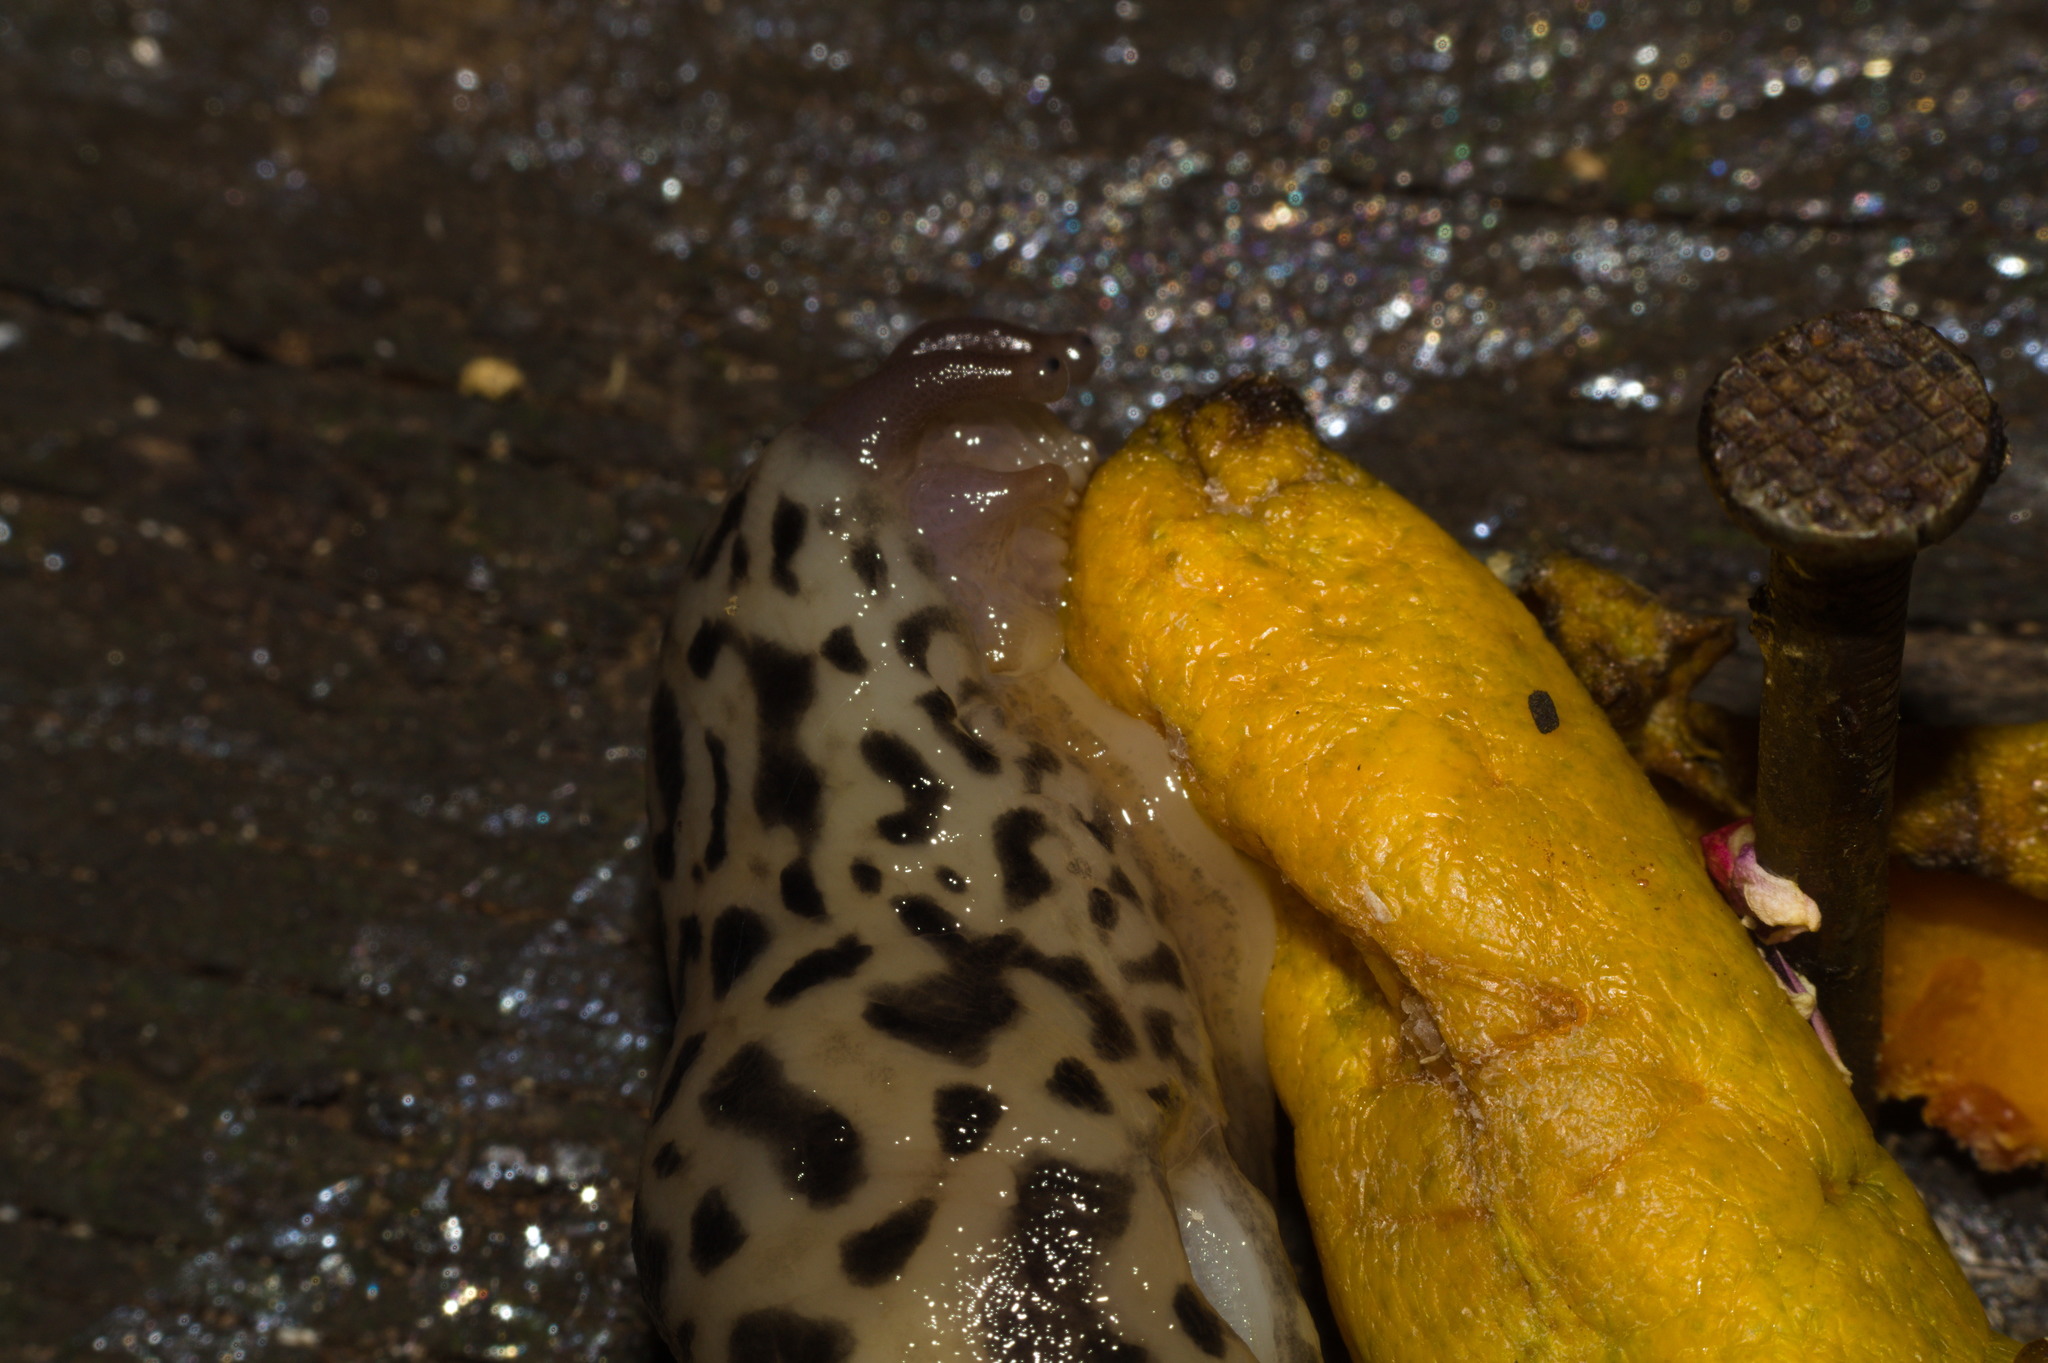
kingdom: Animalia
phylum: Mollusca
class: Gastropoda
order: Stylommatophora
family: Limacidae
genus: Limax
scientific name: Limax maximus
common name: Great grey slug
